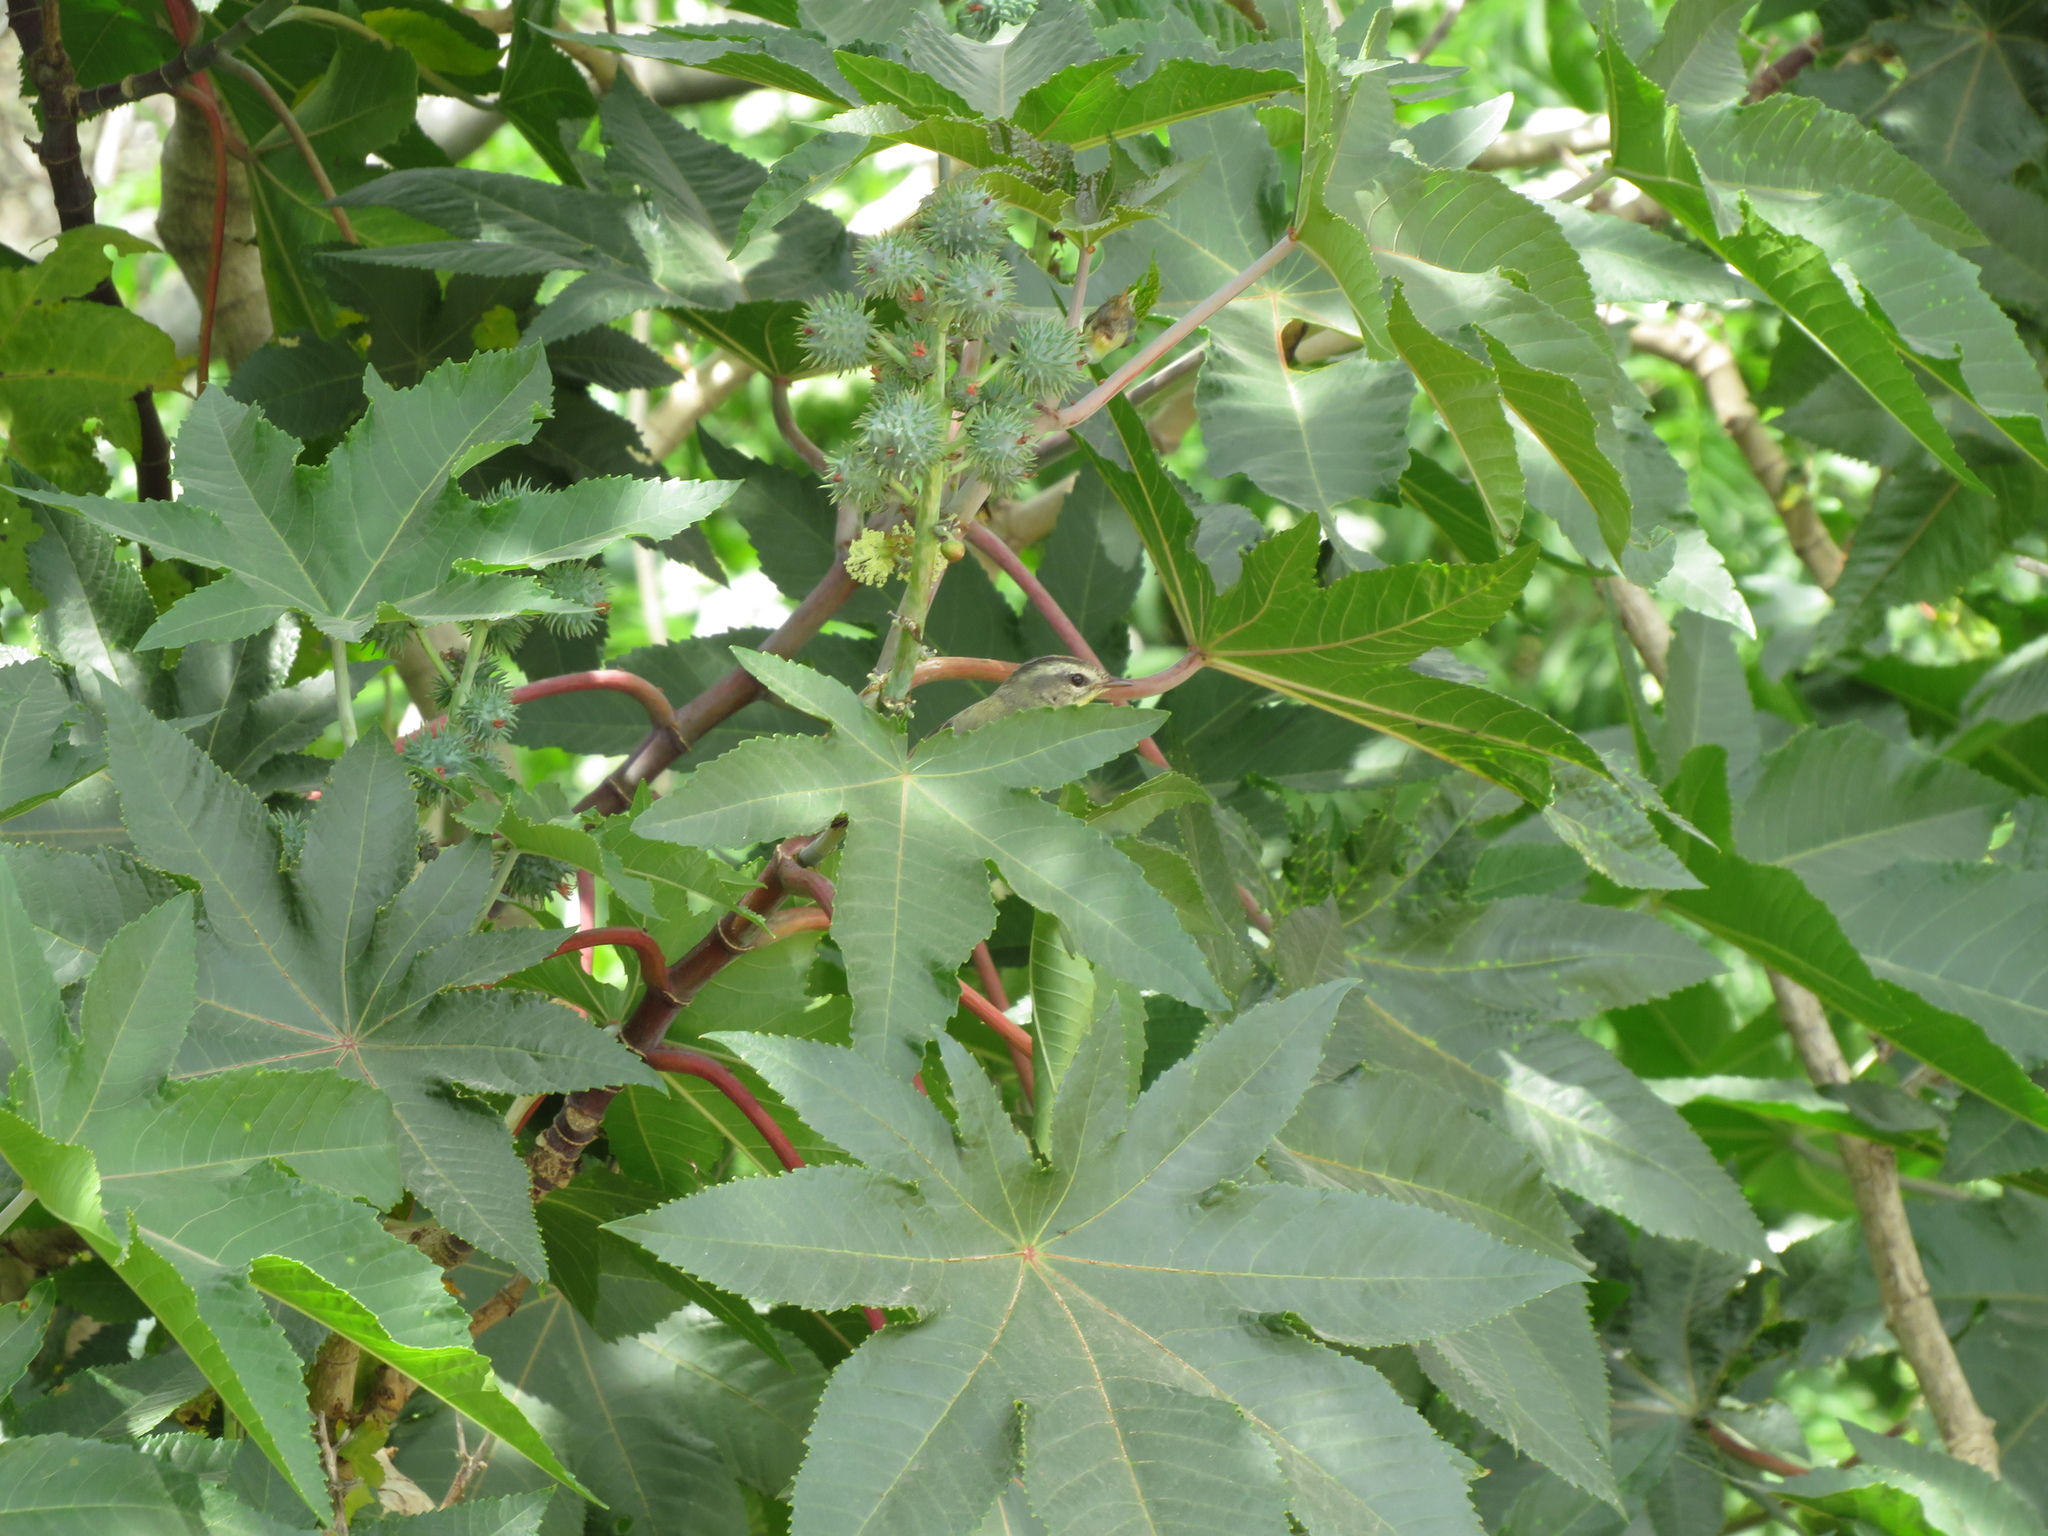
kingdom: Plantae
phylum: Tracheophyta
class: Magnoliopsida
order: Malpighiales
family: Euphorbiaceae
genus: Ricinus
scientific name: Ricinus communis
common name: Castor-oil-plant
